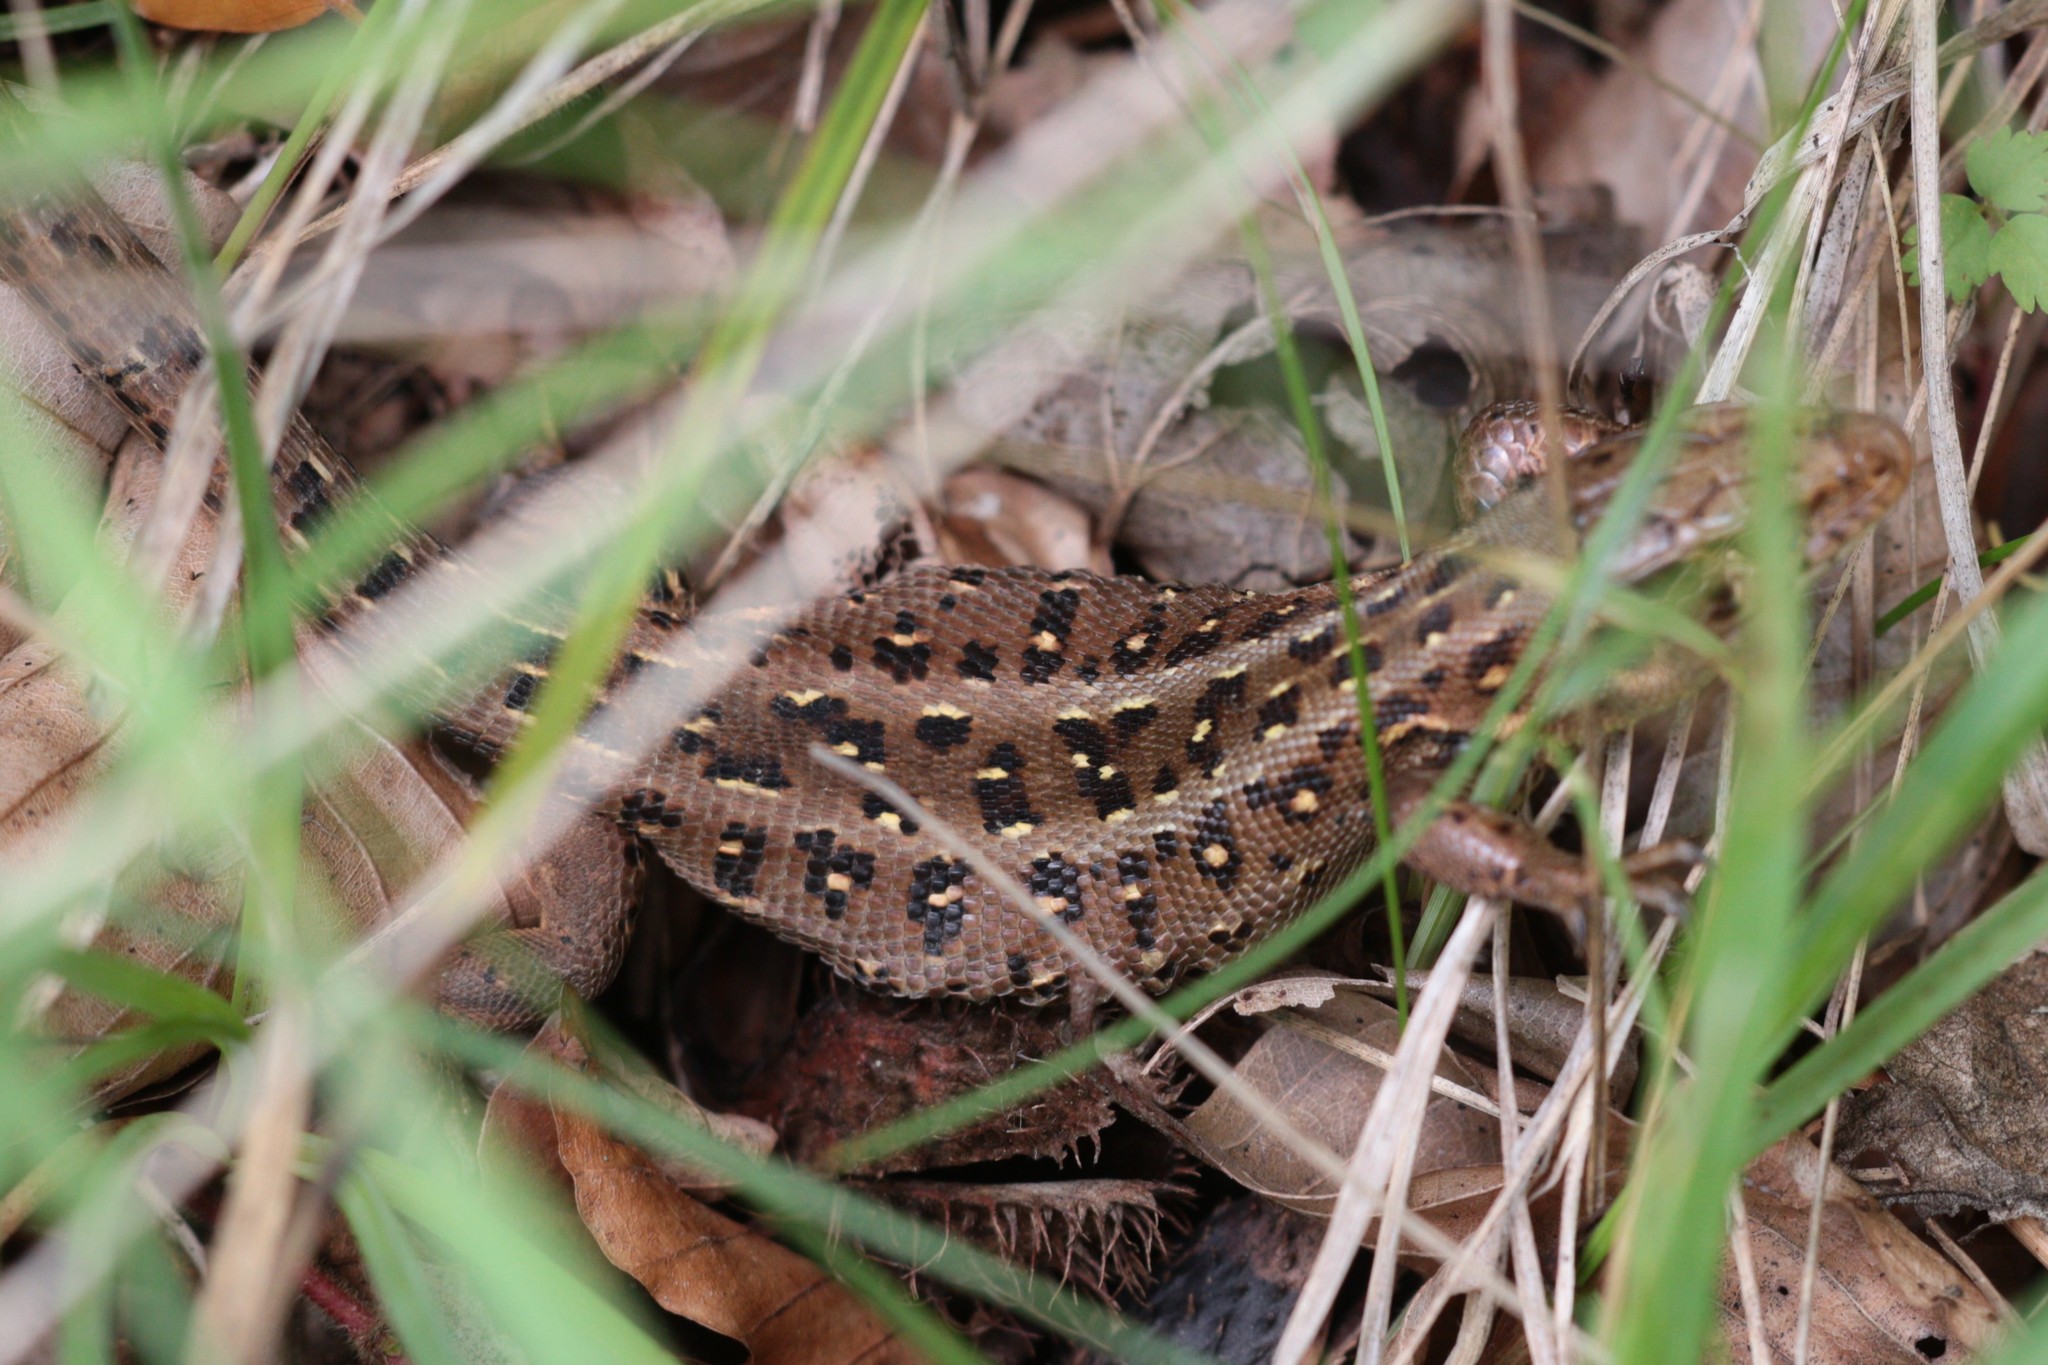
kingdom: Animalia
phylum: Chordata
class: Squamata
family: Lacertidae
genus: Lacerta
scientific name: Lacerta agilis
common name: Sand lizard
